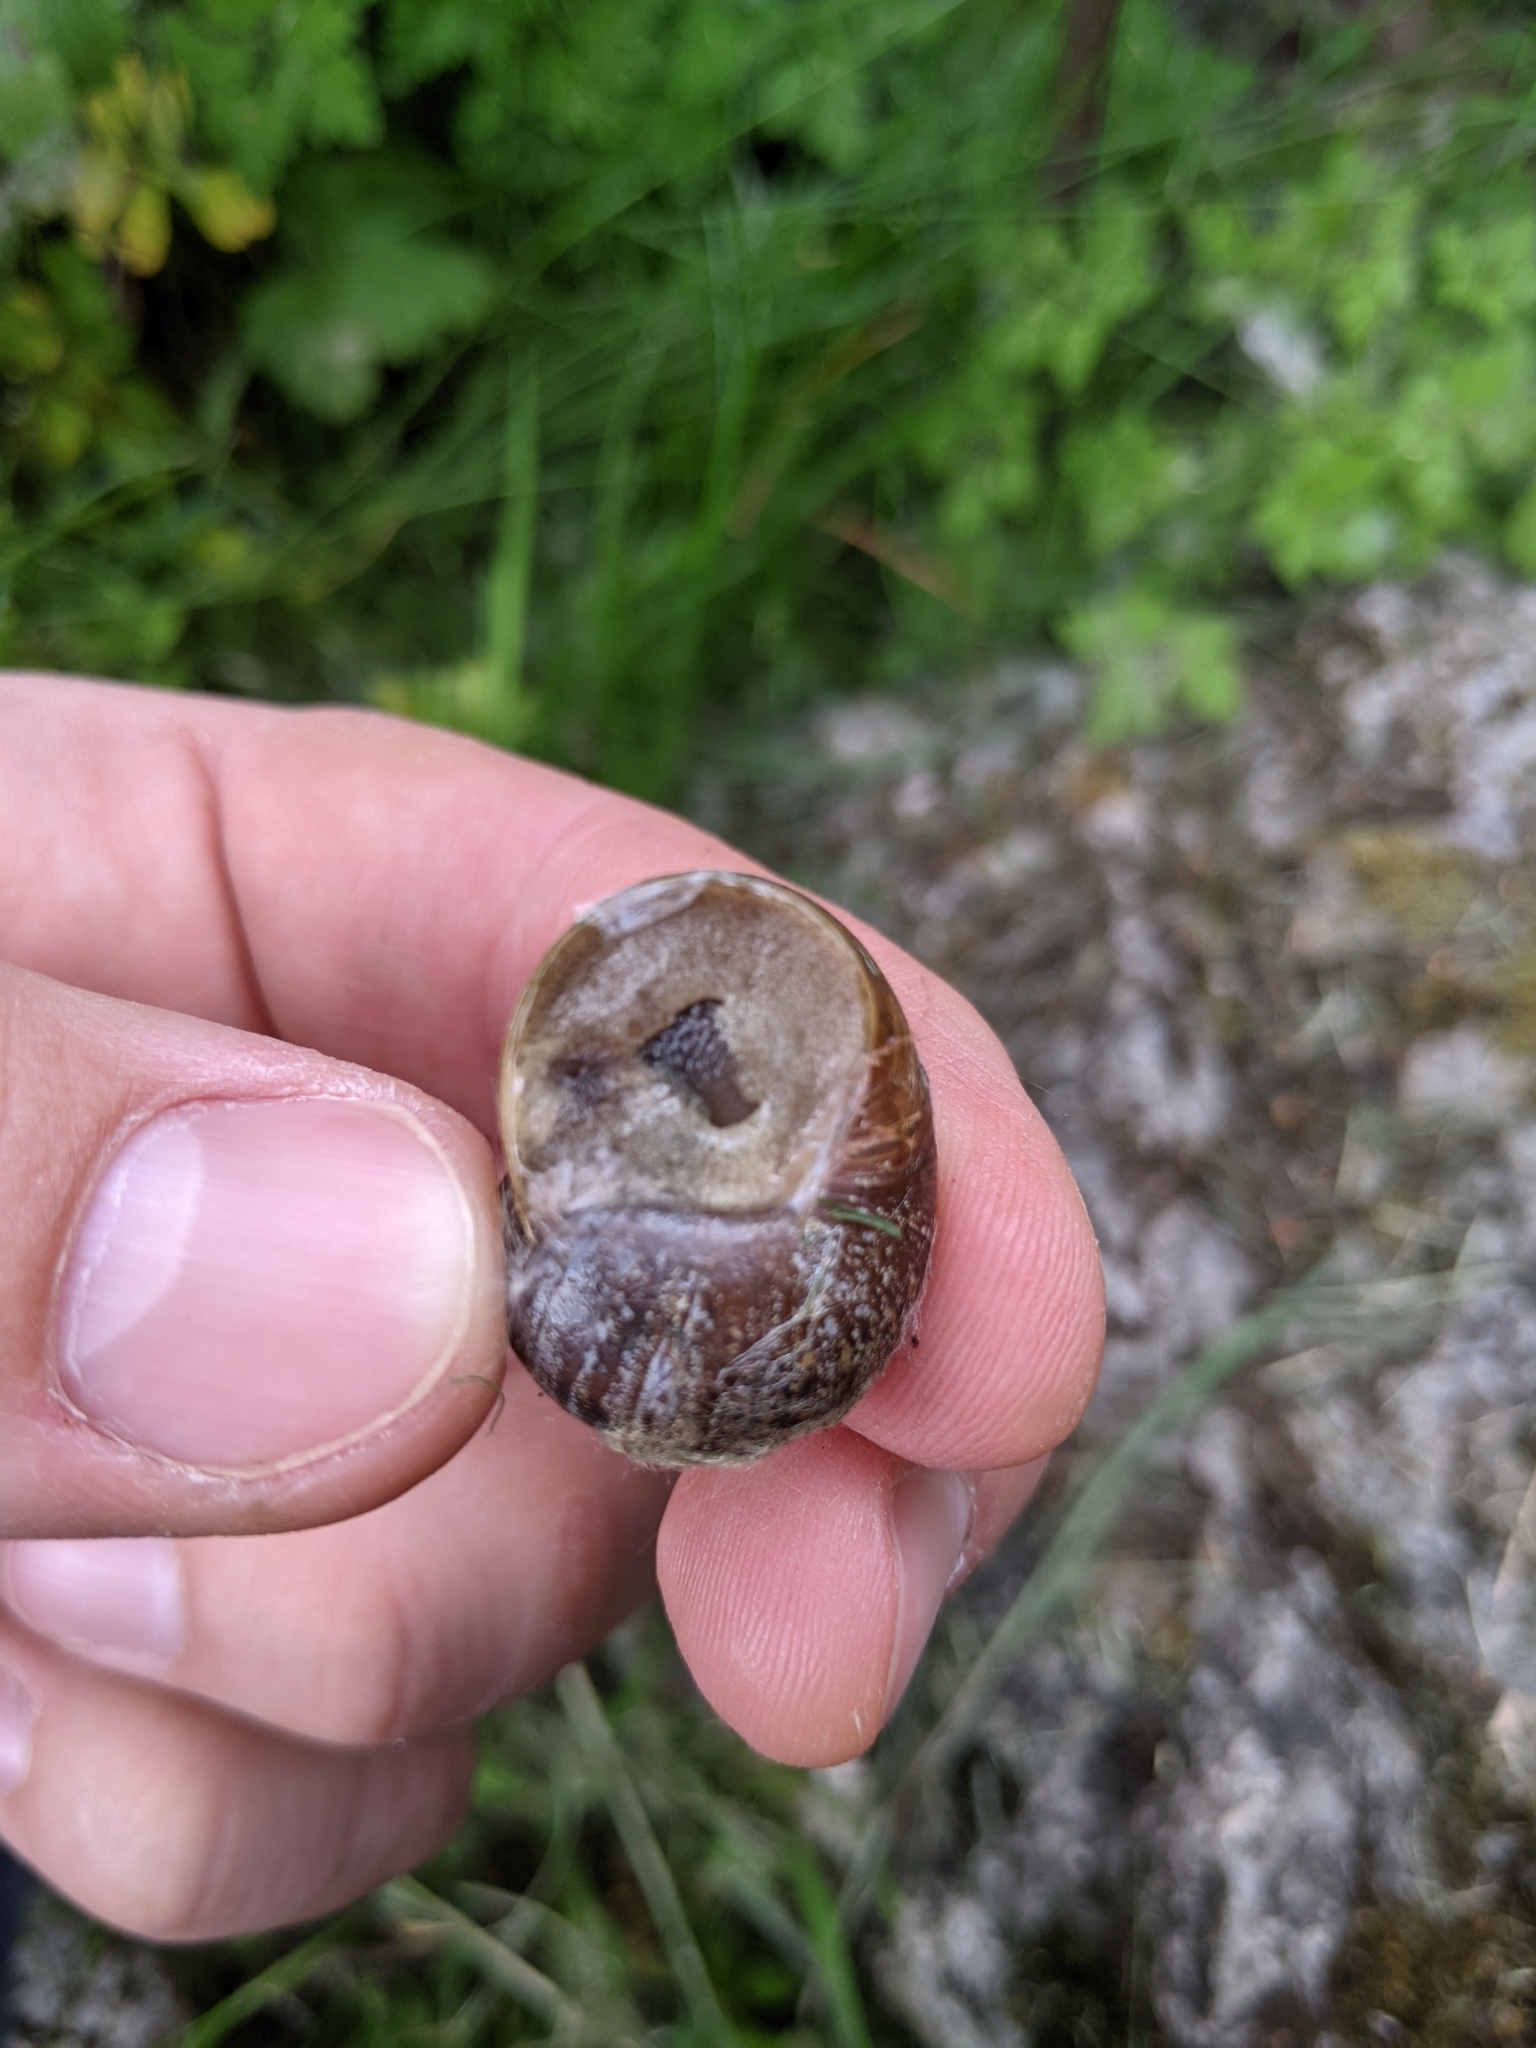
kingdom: Animalia
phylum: Mollusca
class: Gastropoda
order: Stylommatophora
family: Helicidae
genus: Cornu
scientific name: Cornu aspersum
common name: Brown garden snail
